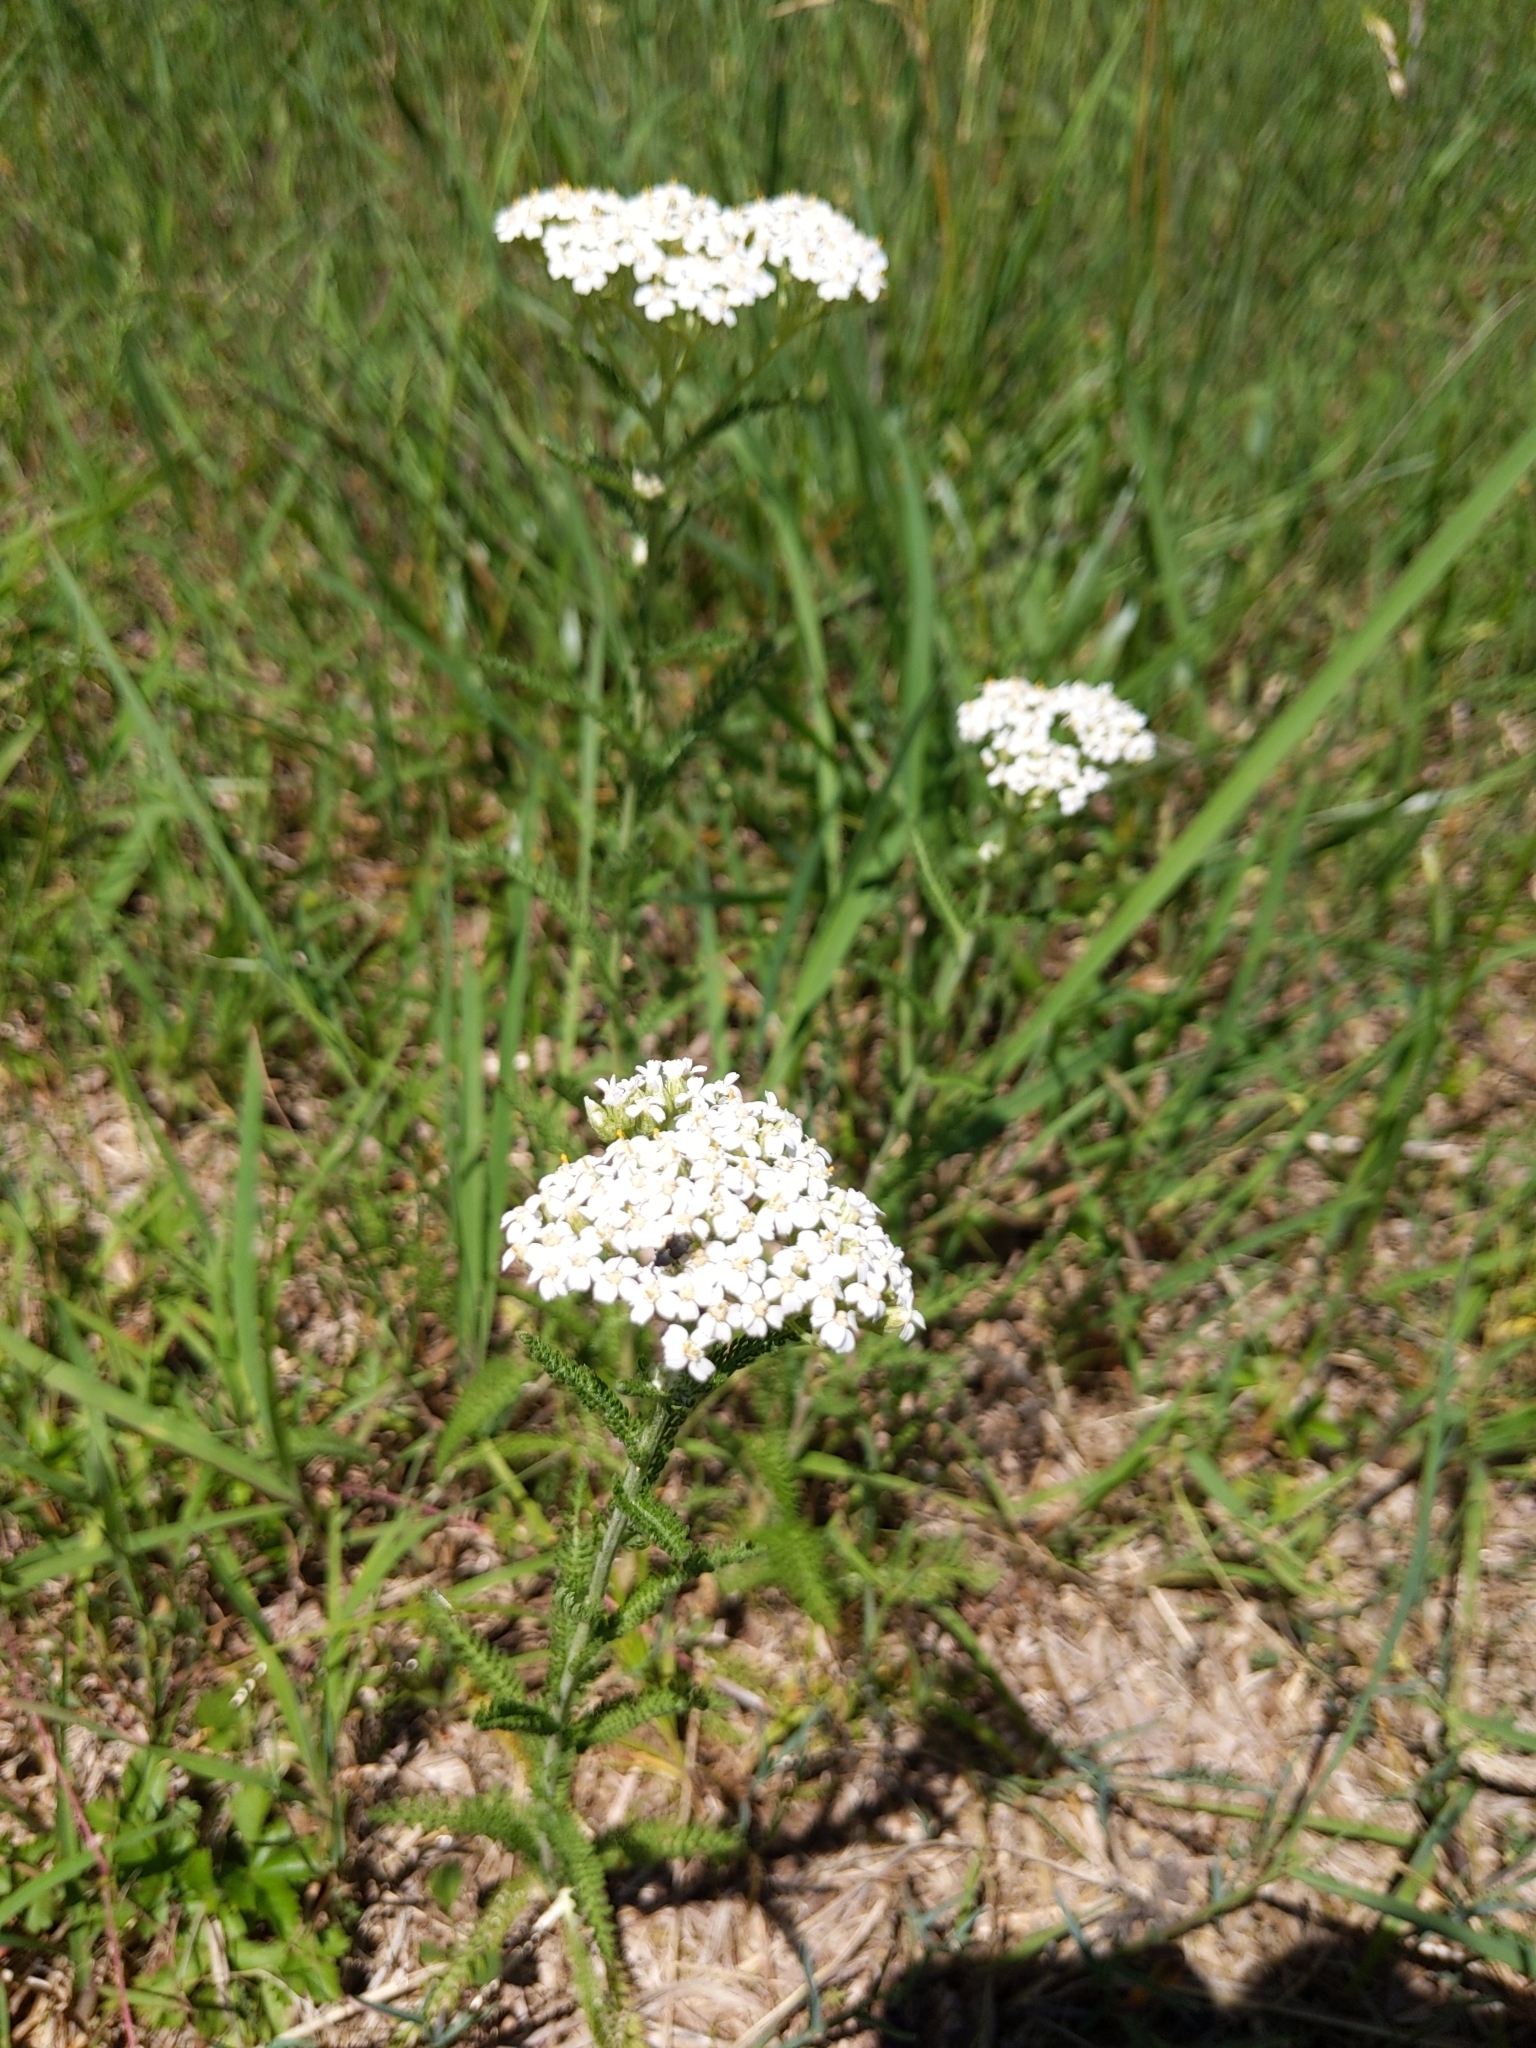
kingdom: Plantae
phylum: Tracheophyta
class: Magnoliopsida
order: Asterales
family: Asteraceae
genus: Achillea
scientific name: Achillea millefolium
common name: Yarrow
